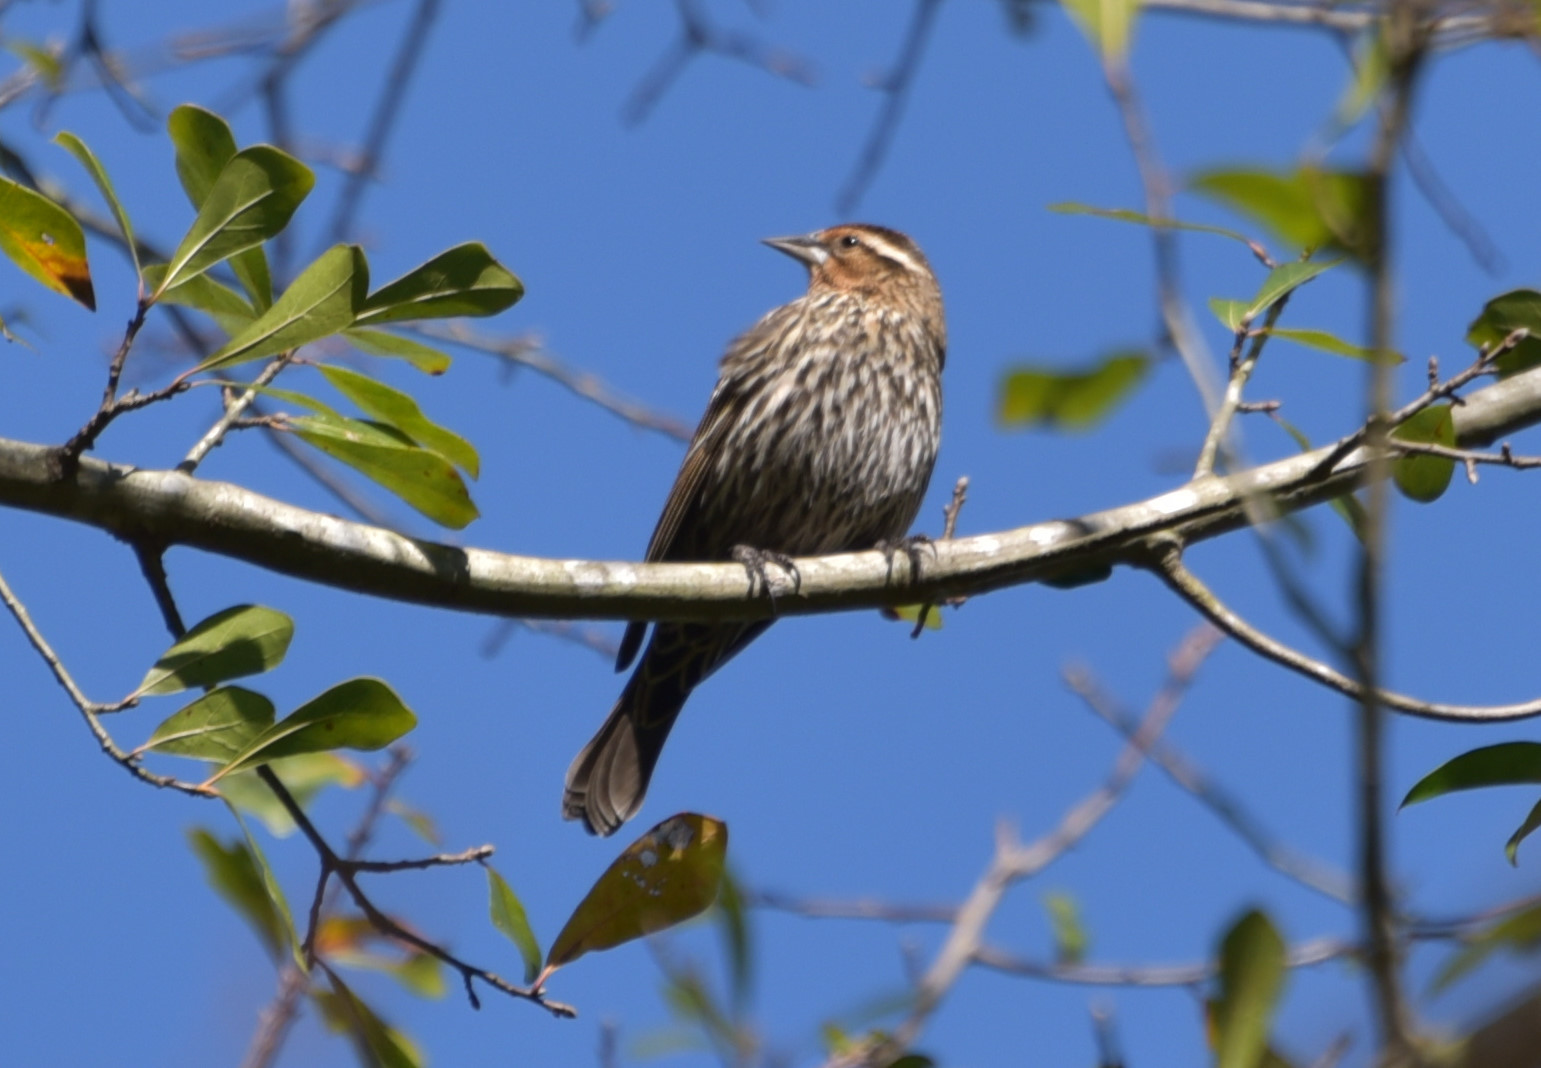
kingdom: Animalia
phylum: Chordata
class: Aves
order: Passeriformes
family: Icteridae
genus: Agelaius
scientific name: Agelaius phoeniceus
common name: Red-winged blackbird
